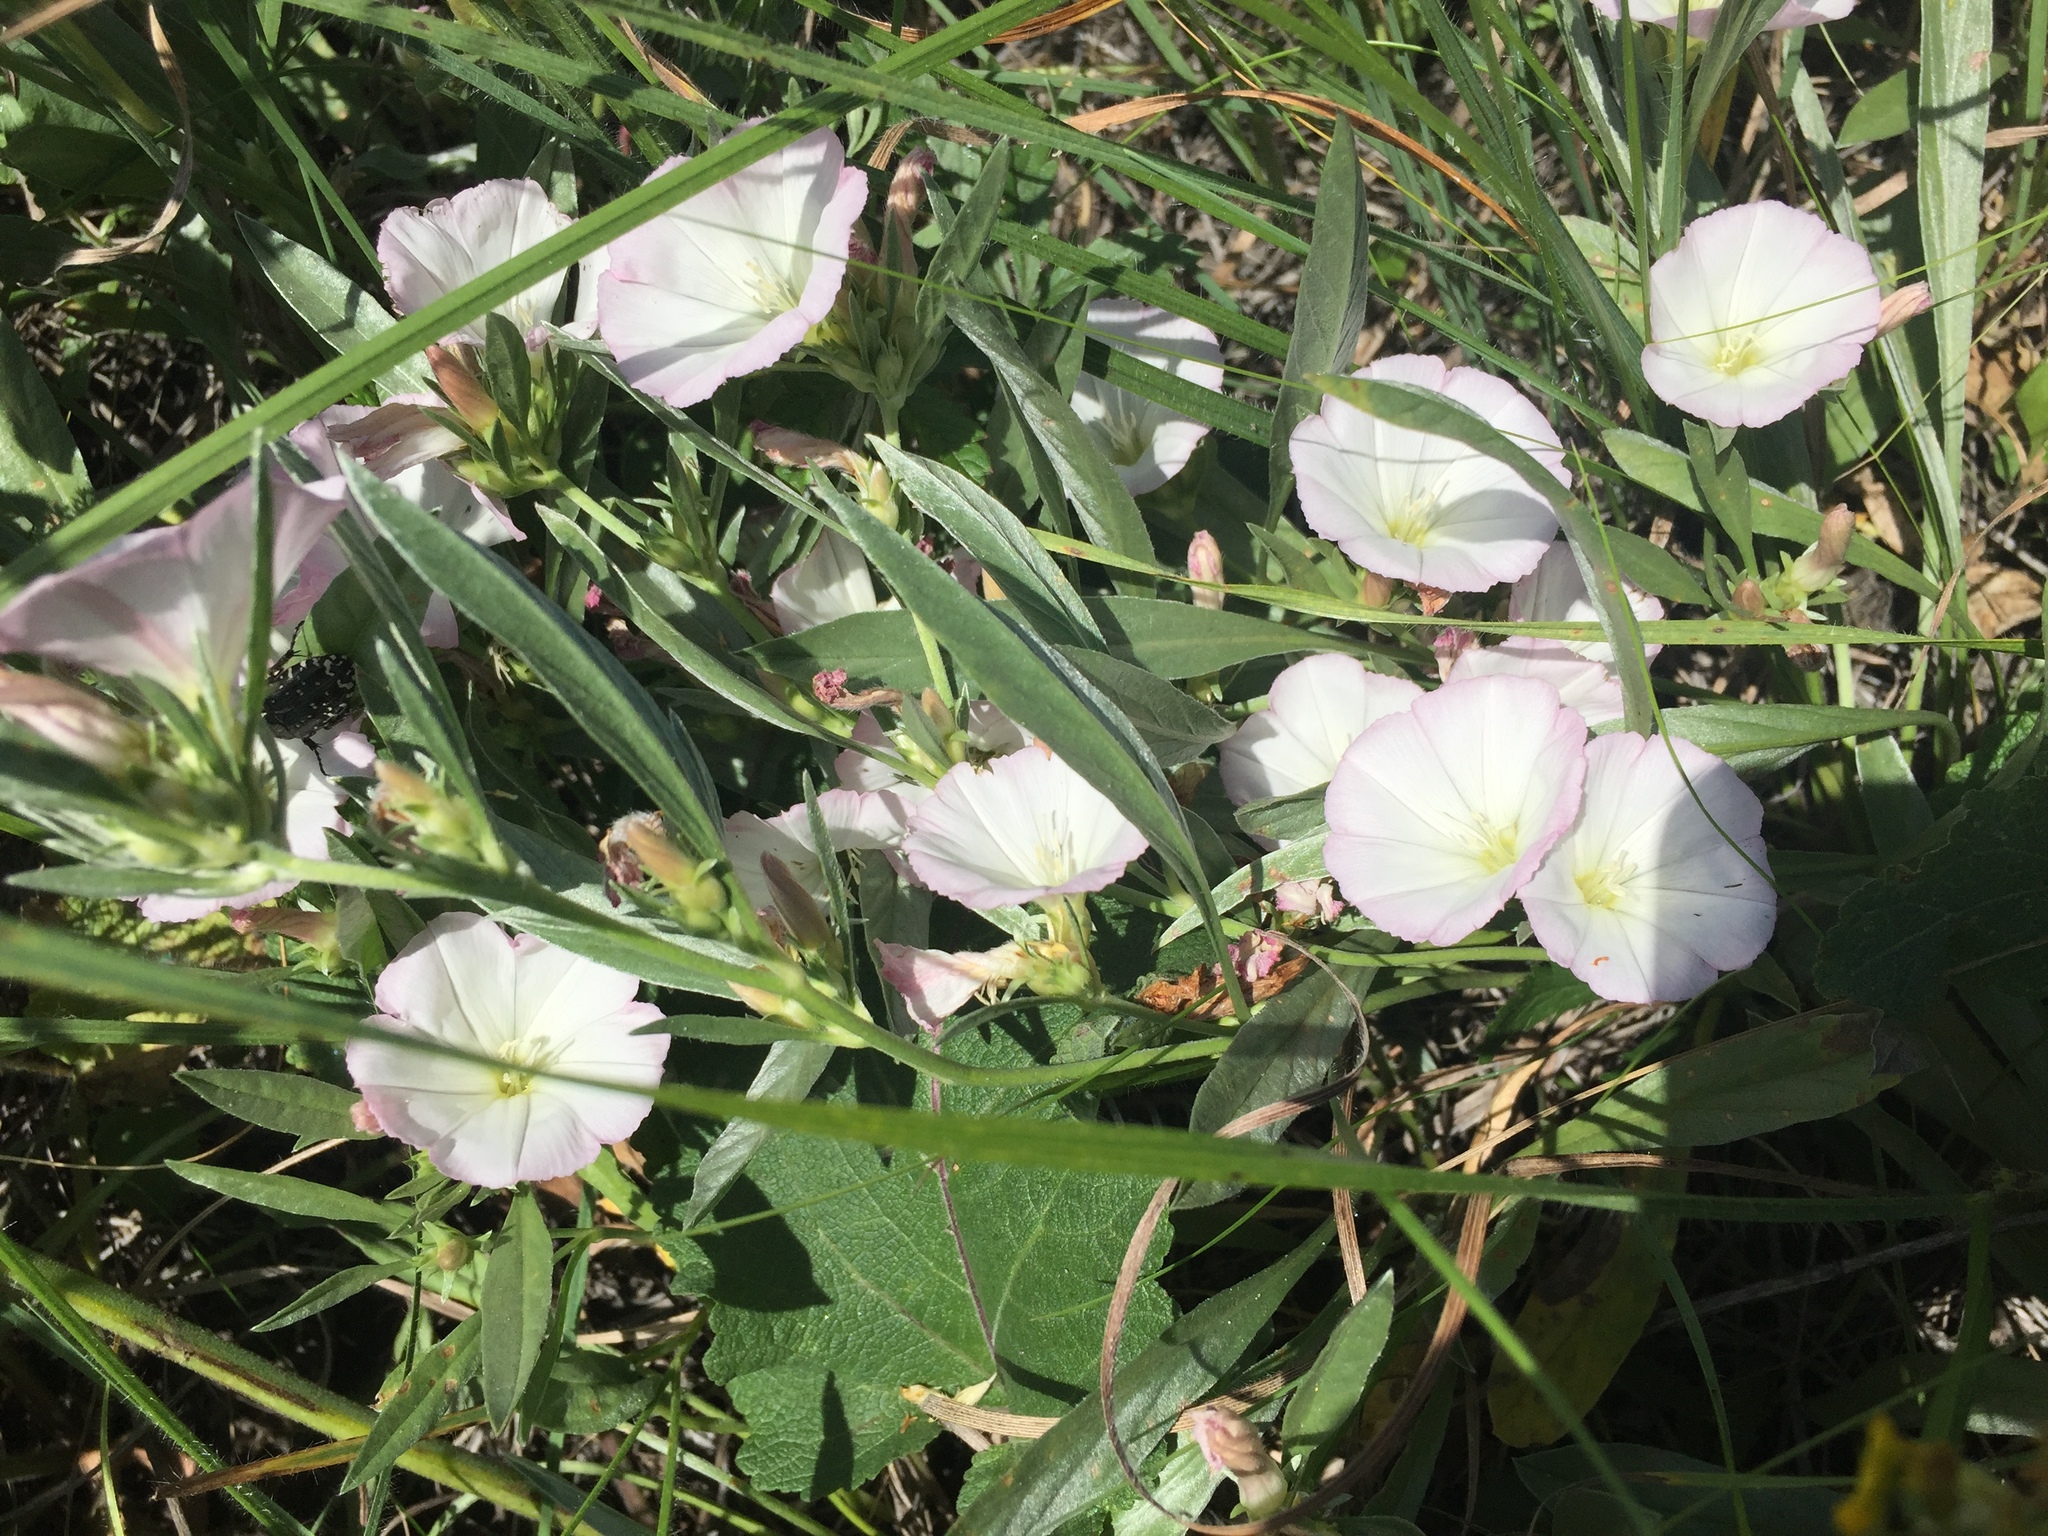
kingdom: Plantae
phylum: Tracheophyta
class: Magnoliopsida
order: Solanales
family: Convolvulaceae
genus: Convolvulus
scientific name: Convolvulus lineatus
